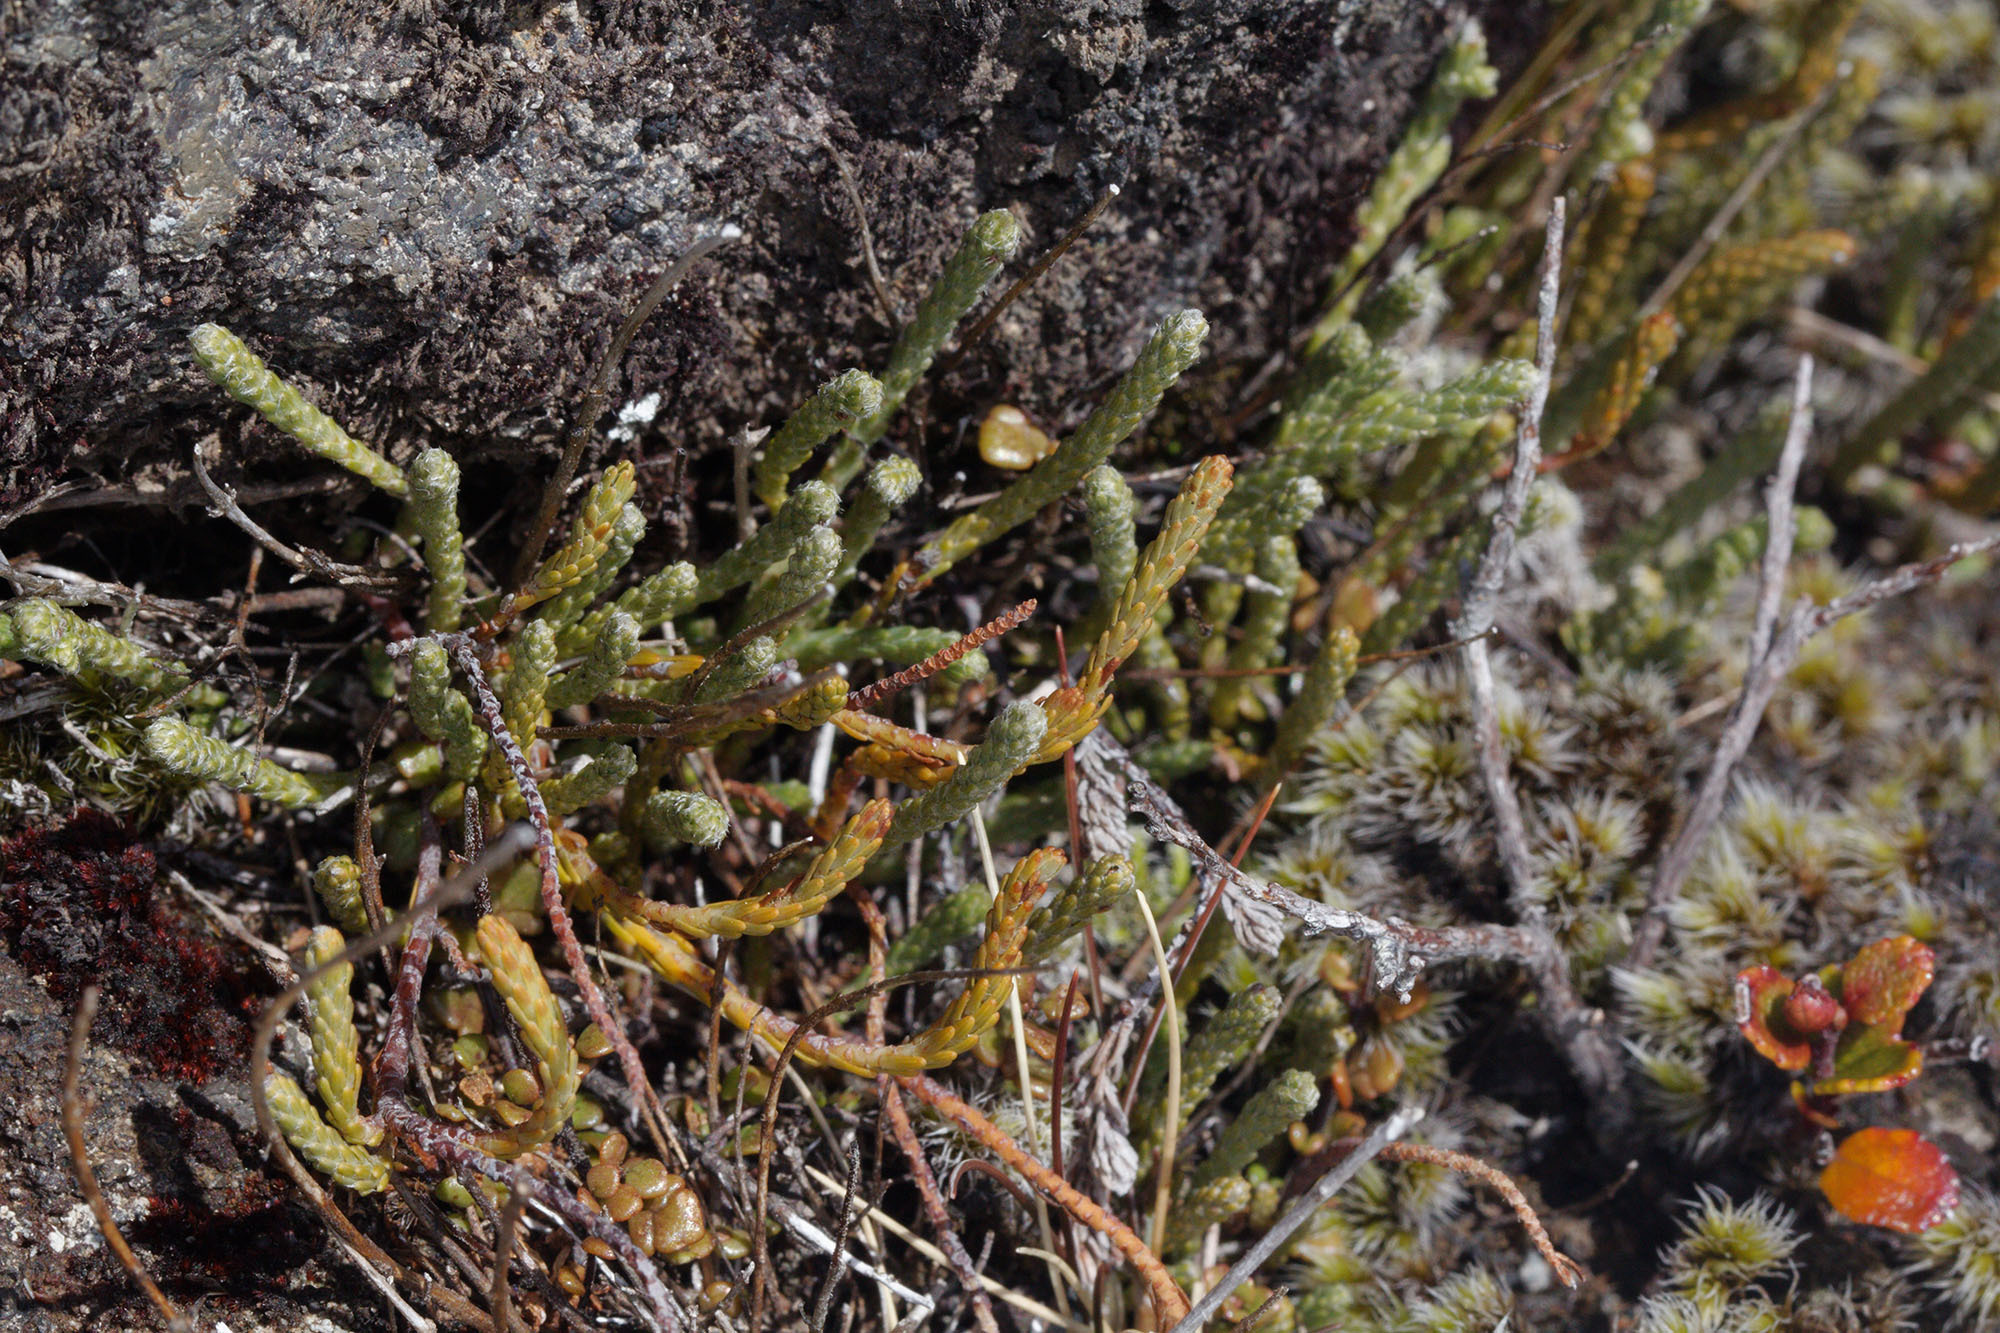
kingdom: Plantae
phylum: Tracheophyta
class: Magnoliopsida
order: Malvales
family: Thymelaeaceae
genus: Kelleria
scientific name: Kelleria dieffenbachii
